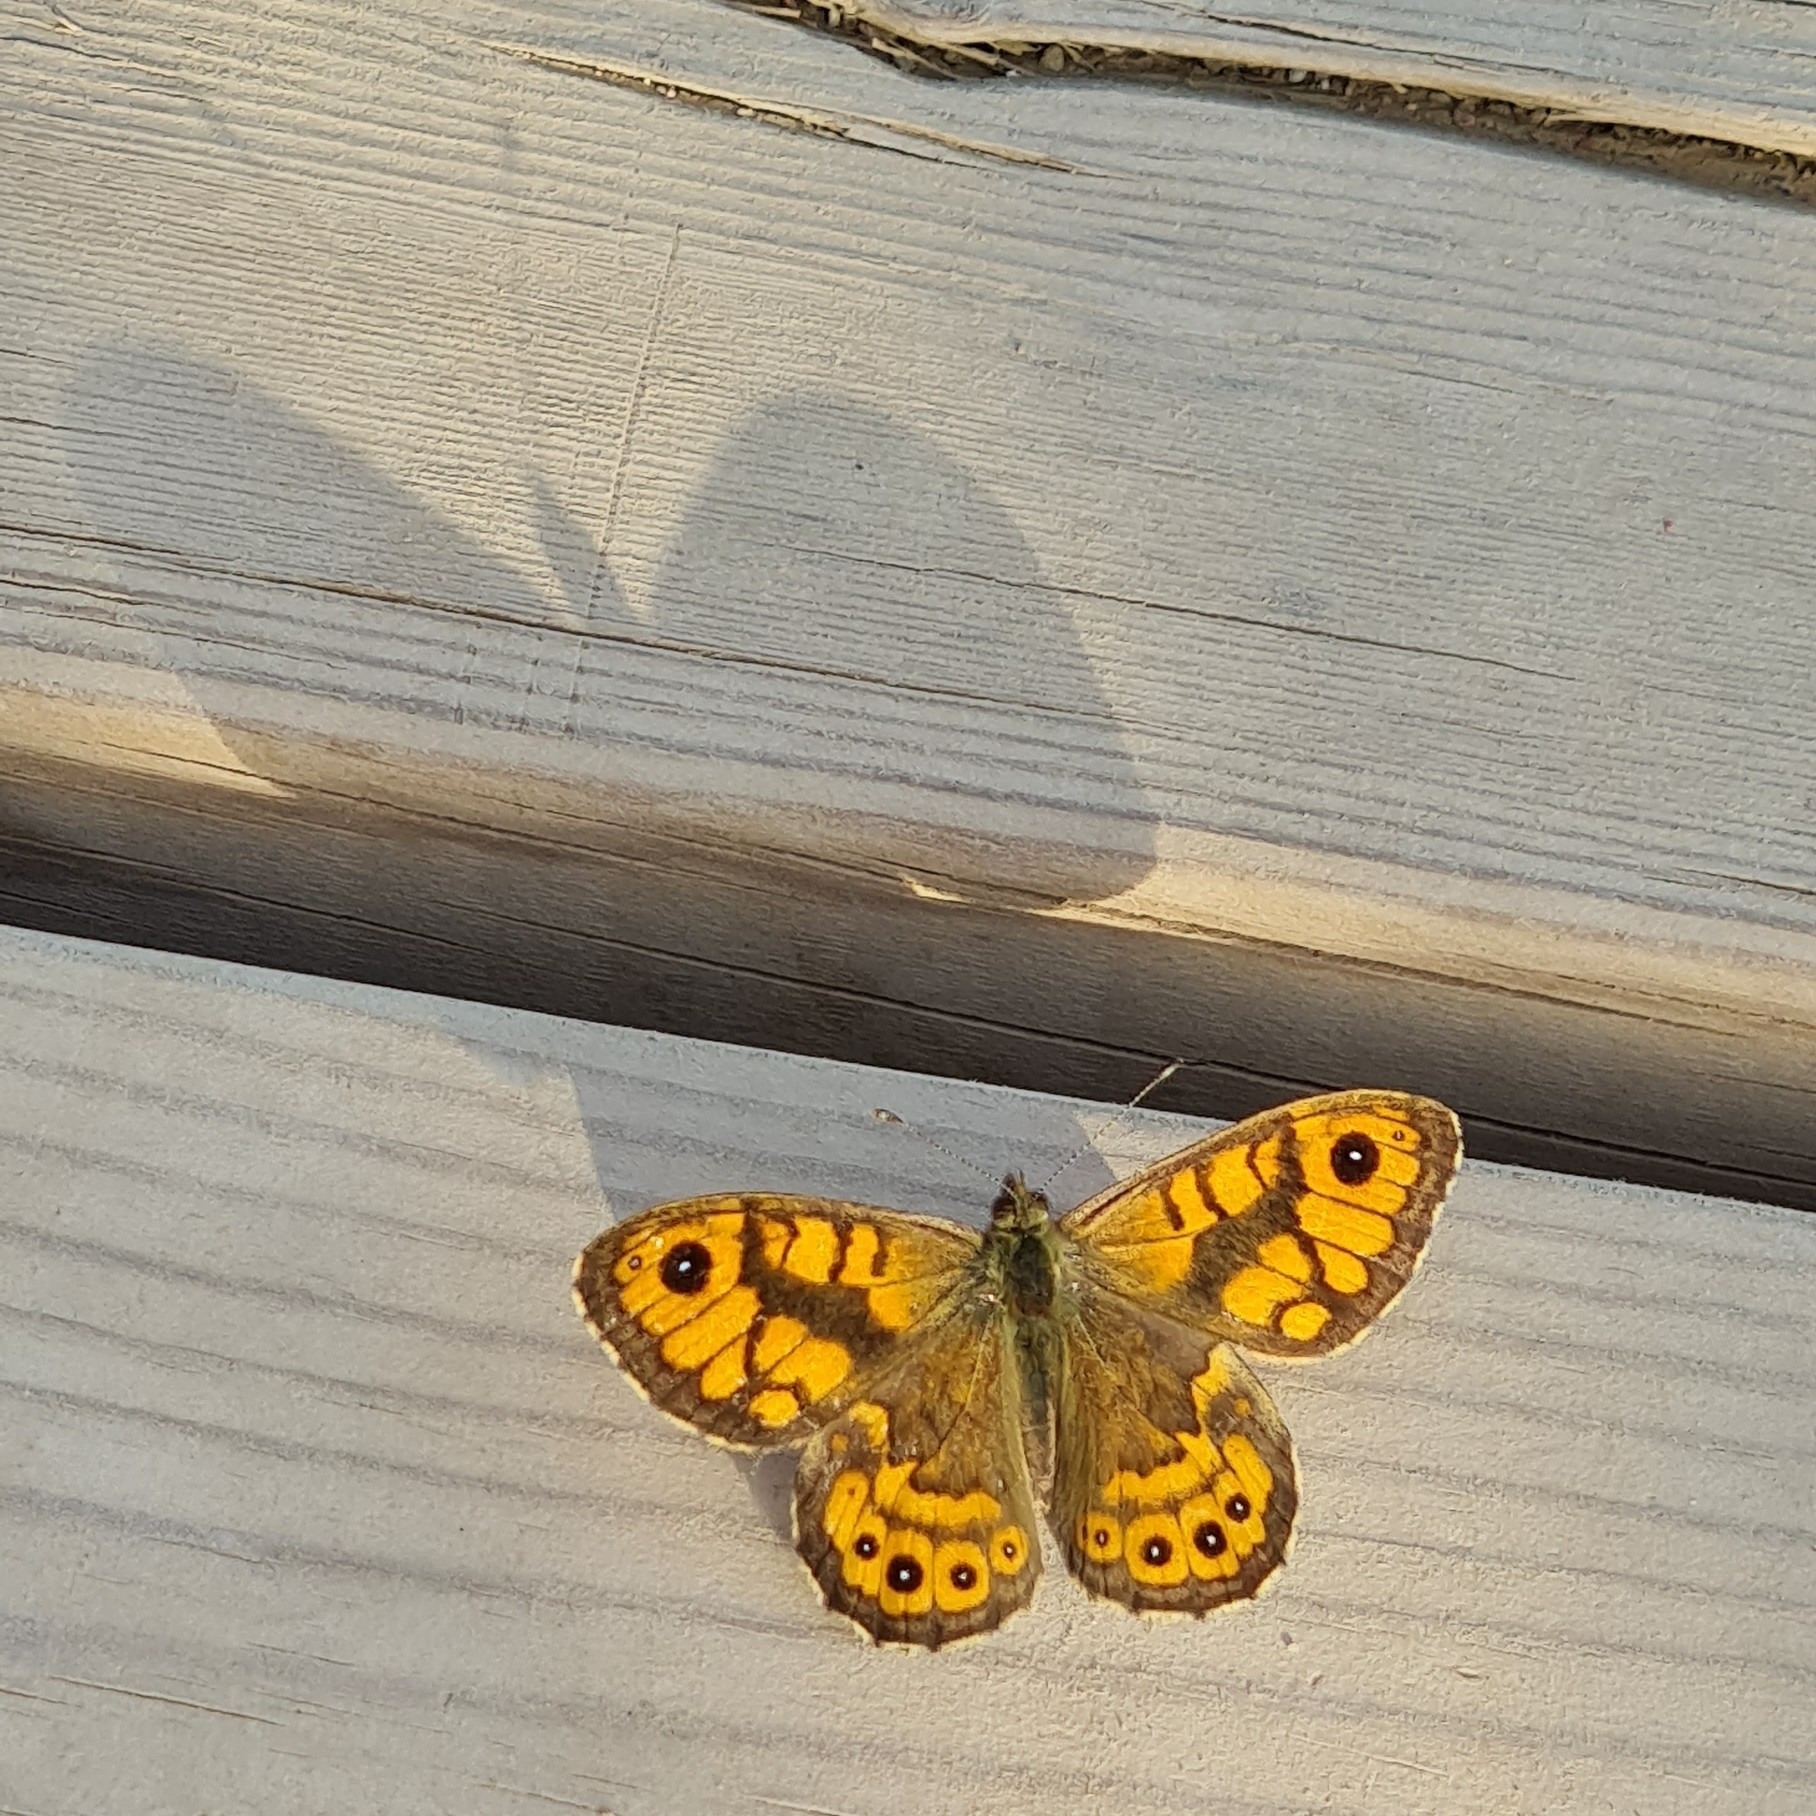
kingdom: Animalia
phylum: Arthropoda
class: Insecta
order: Lepidoptera
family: Nymphalidae
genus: Pararge
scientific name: Pararge Lasiommata megera
